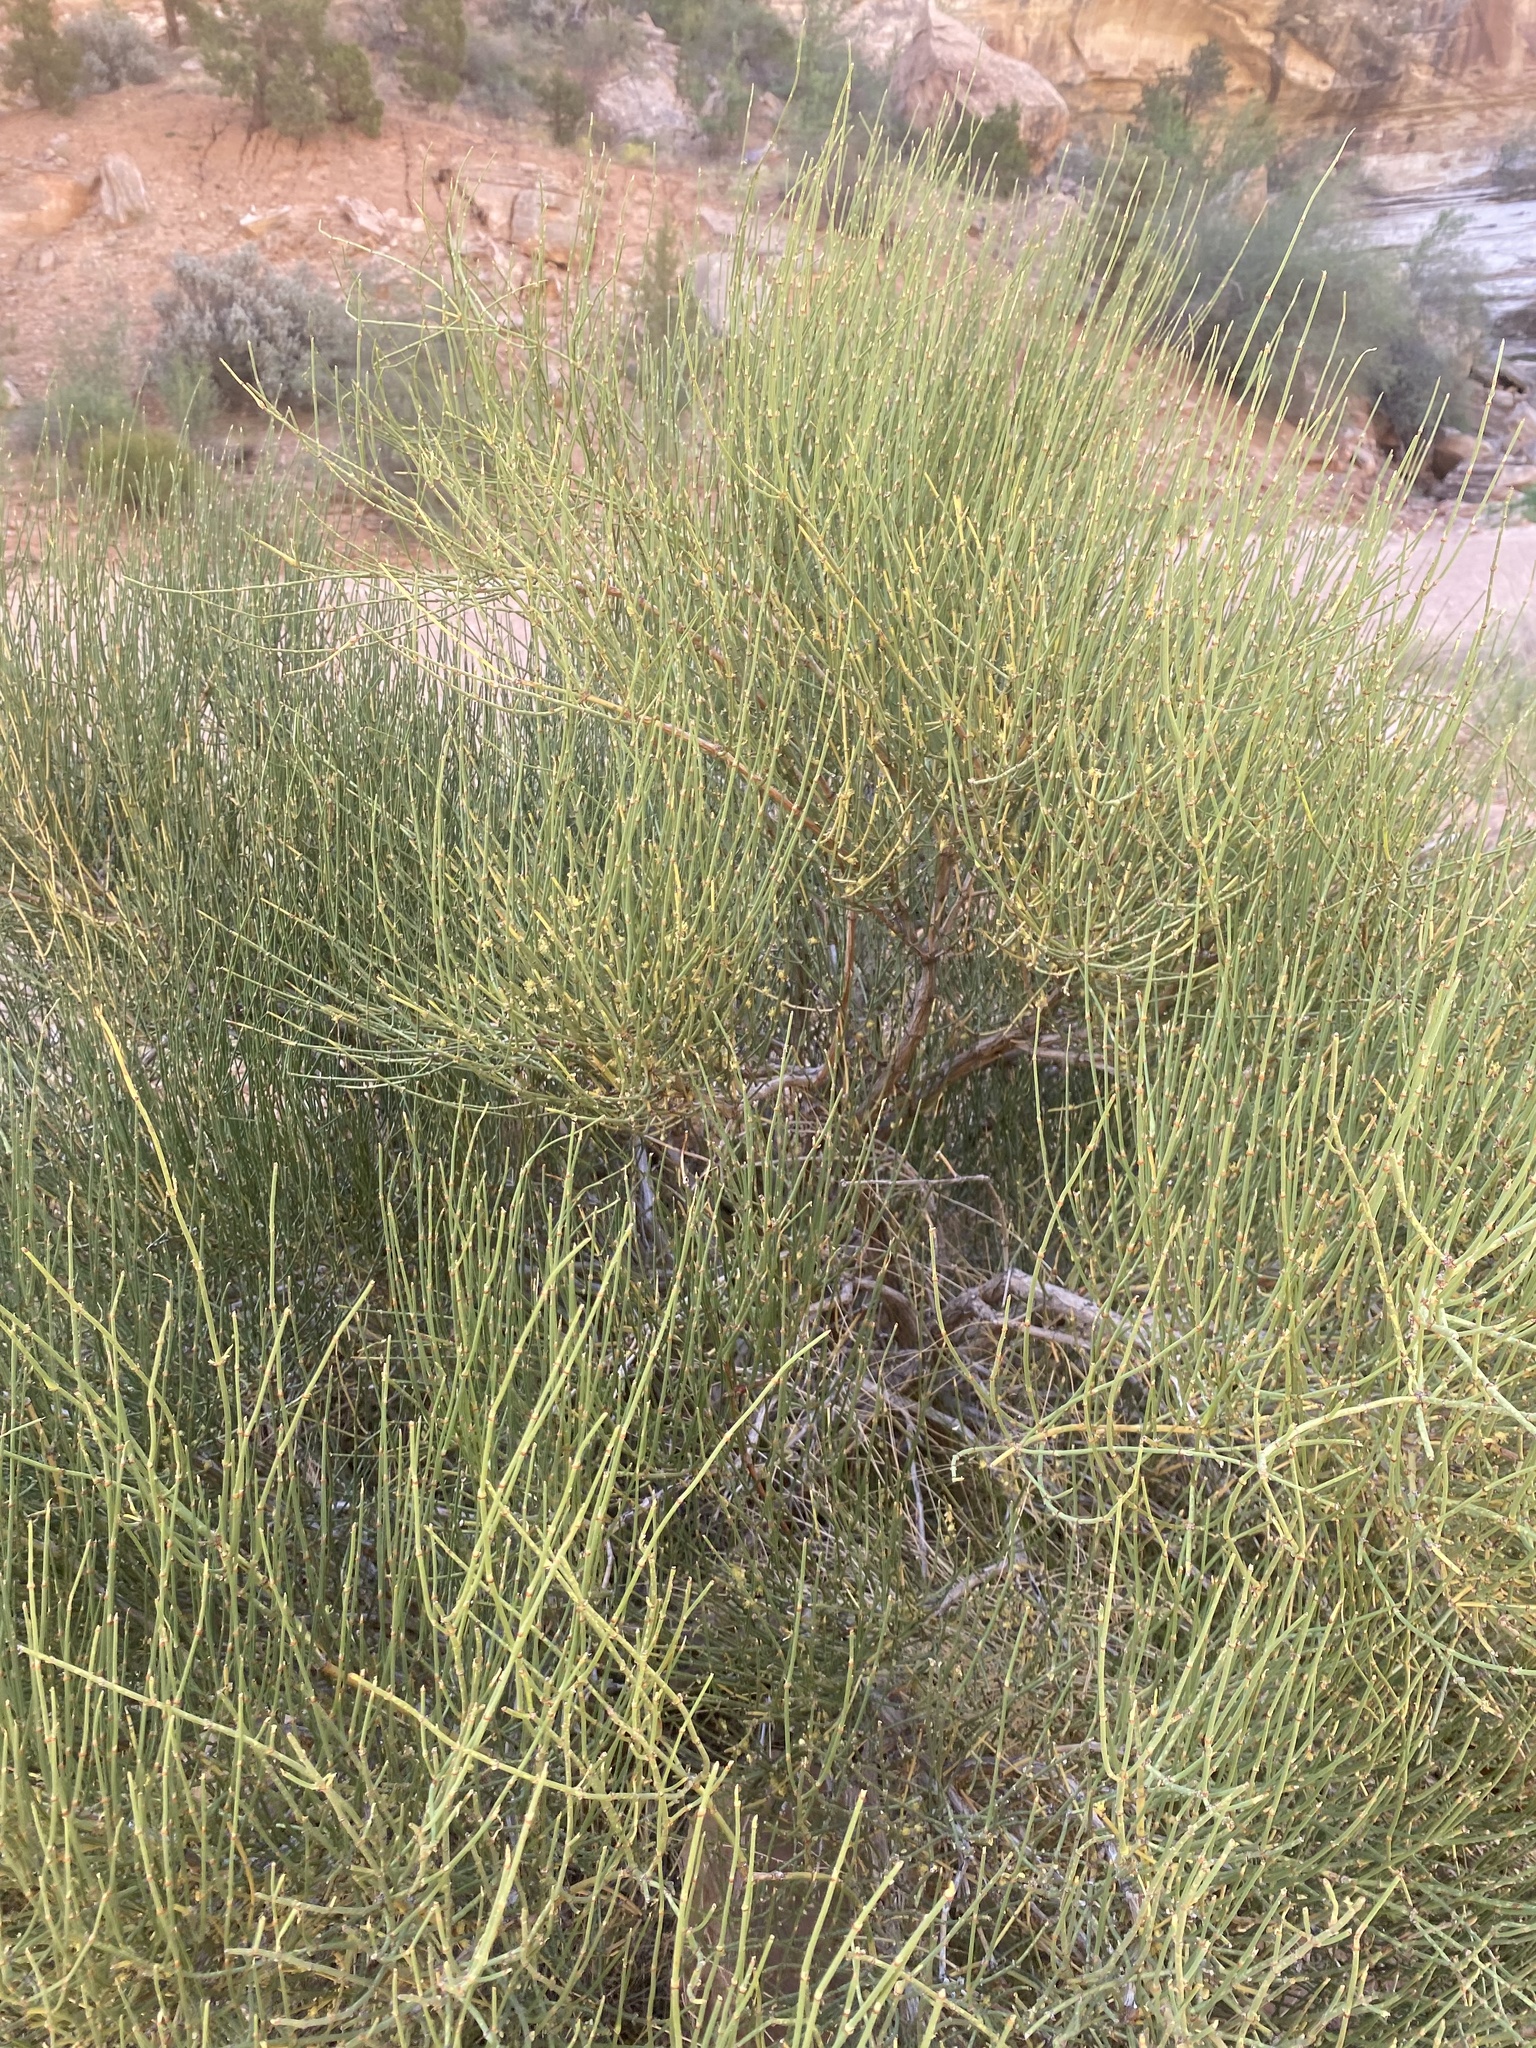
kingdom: Plantae
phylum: Tracheophyta
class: Gnetopsida
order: Ephedrales
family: Ephedraceae
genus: Ephedra
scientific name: Ephedra viridis
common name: Green ephedra
